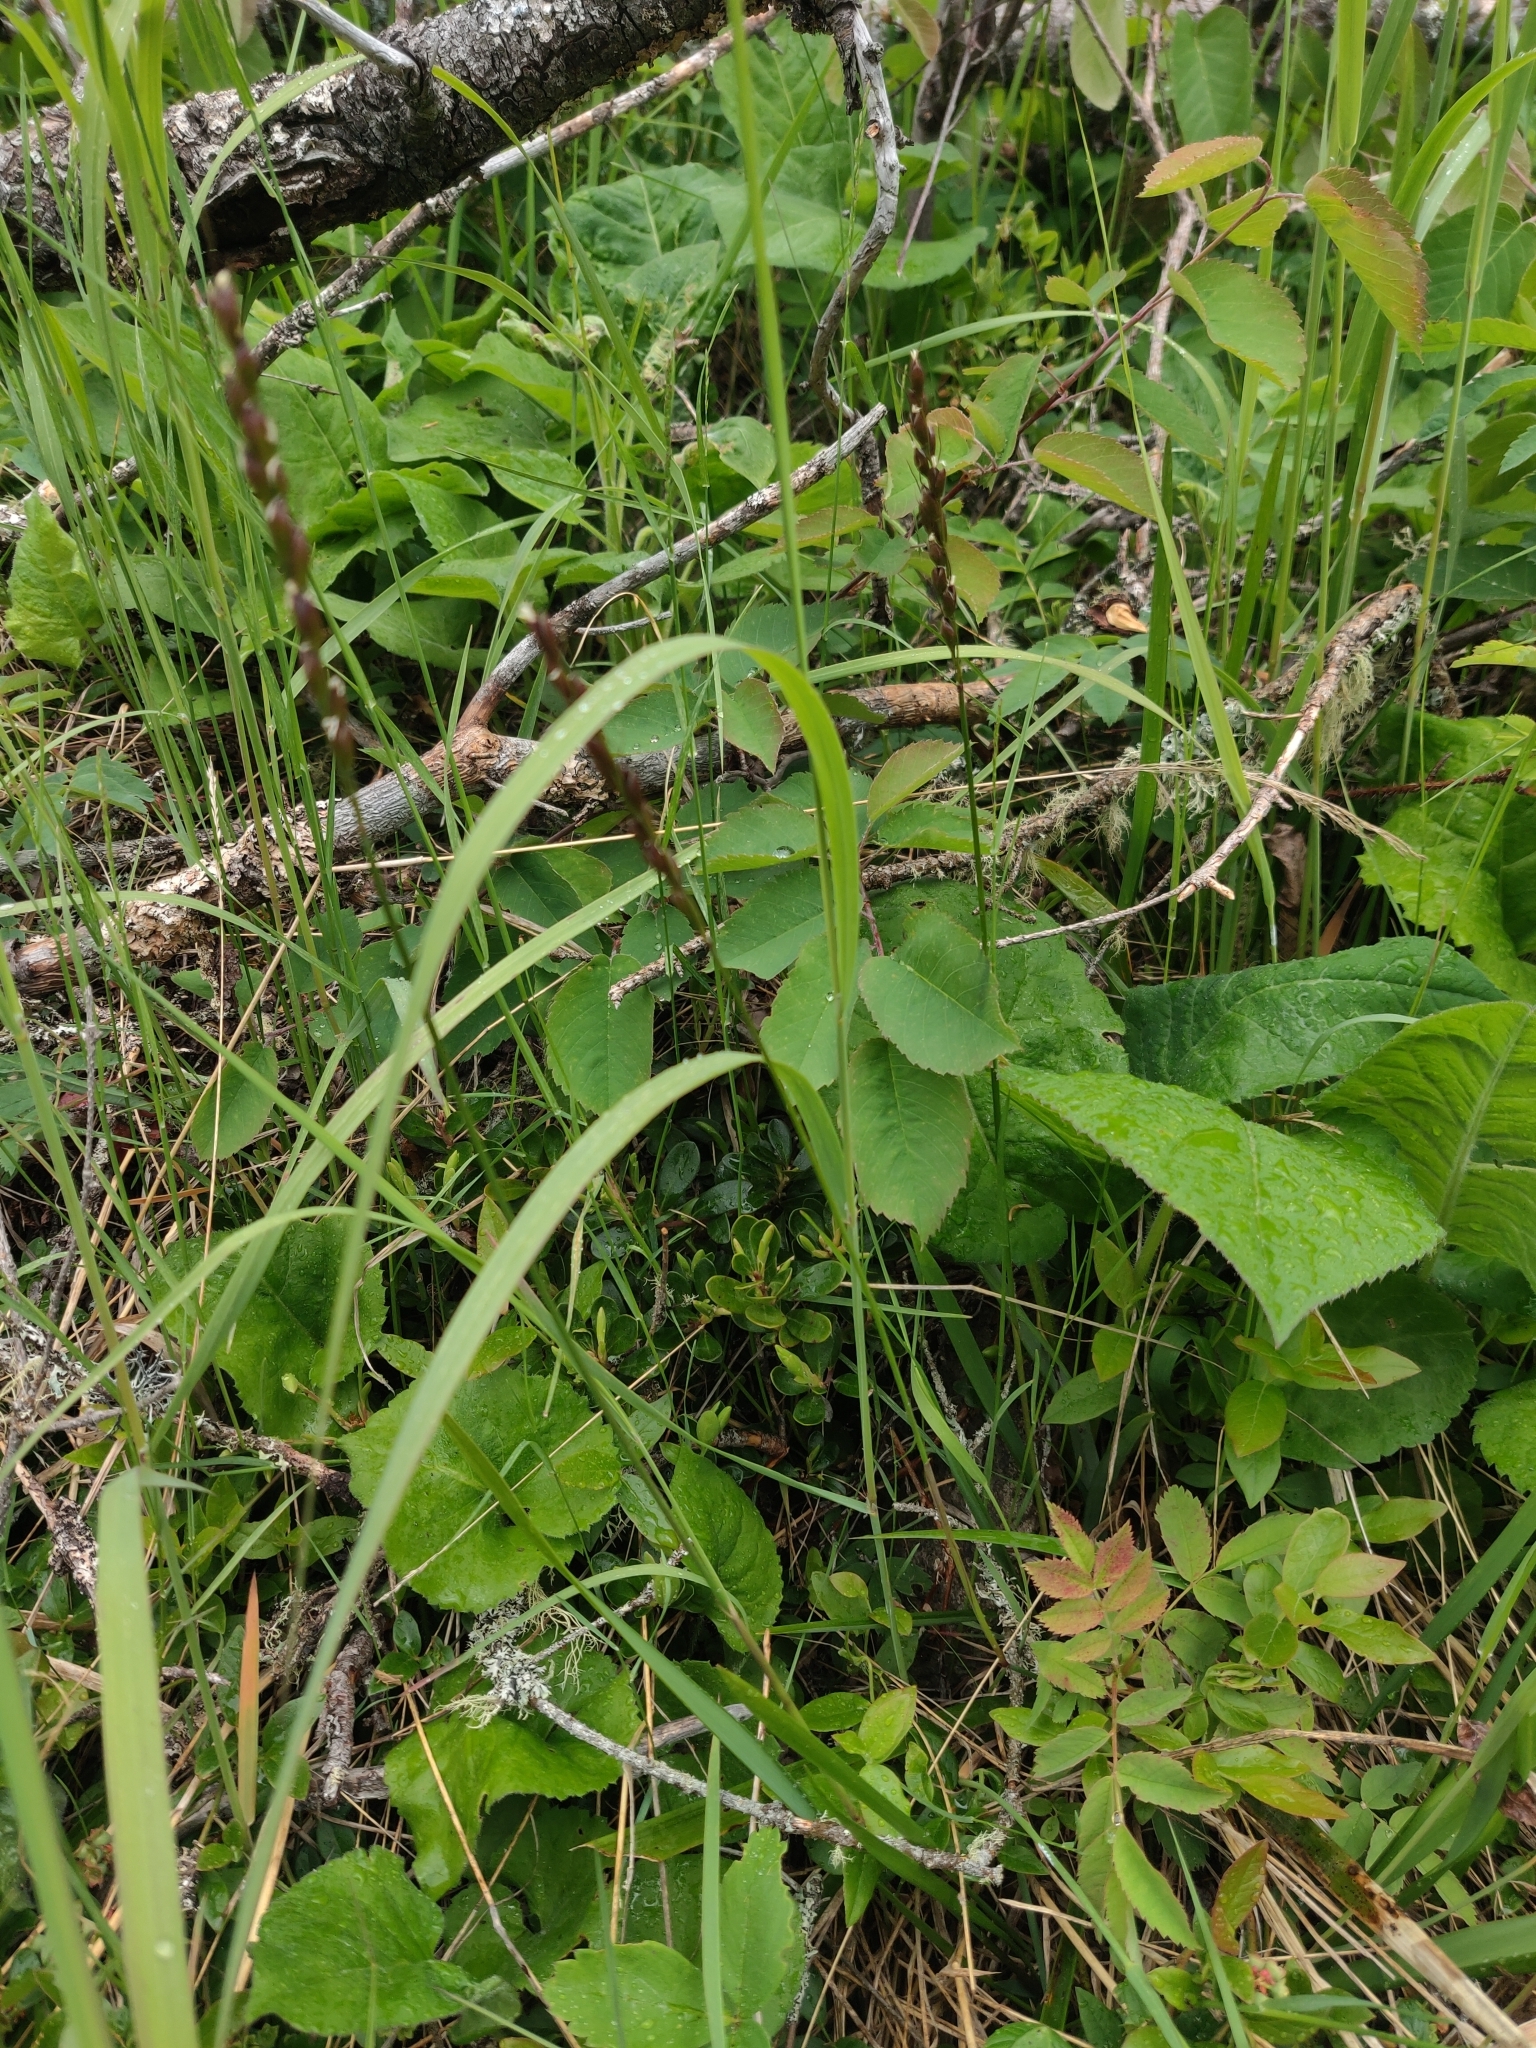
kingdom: Plantae
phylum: Tracheophyta
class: Liliopsida
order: Poales
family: Poaceae
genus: Oryzopsis
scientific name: Oryzopsis asperifolia
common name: Rough-leaved mountain rice
